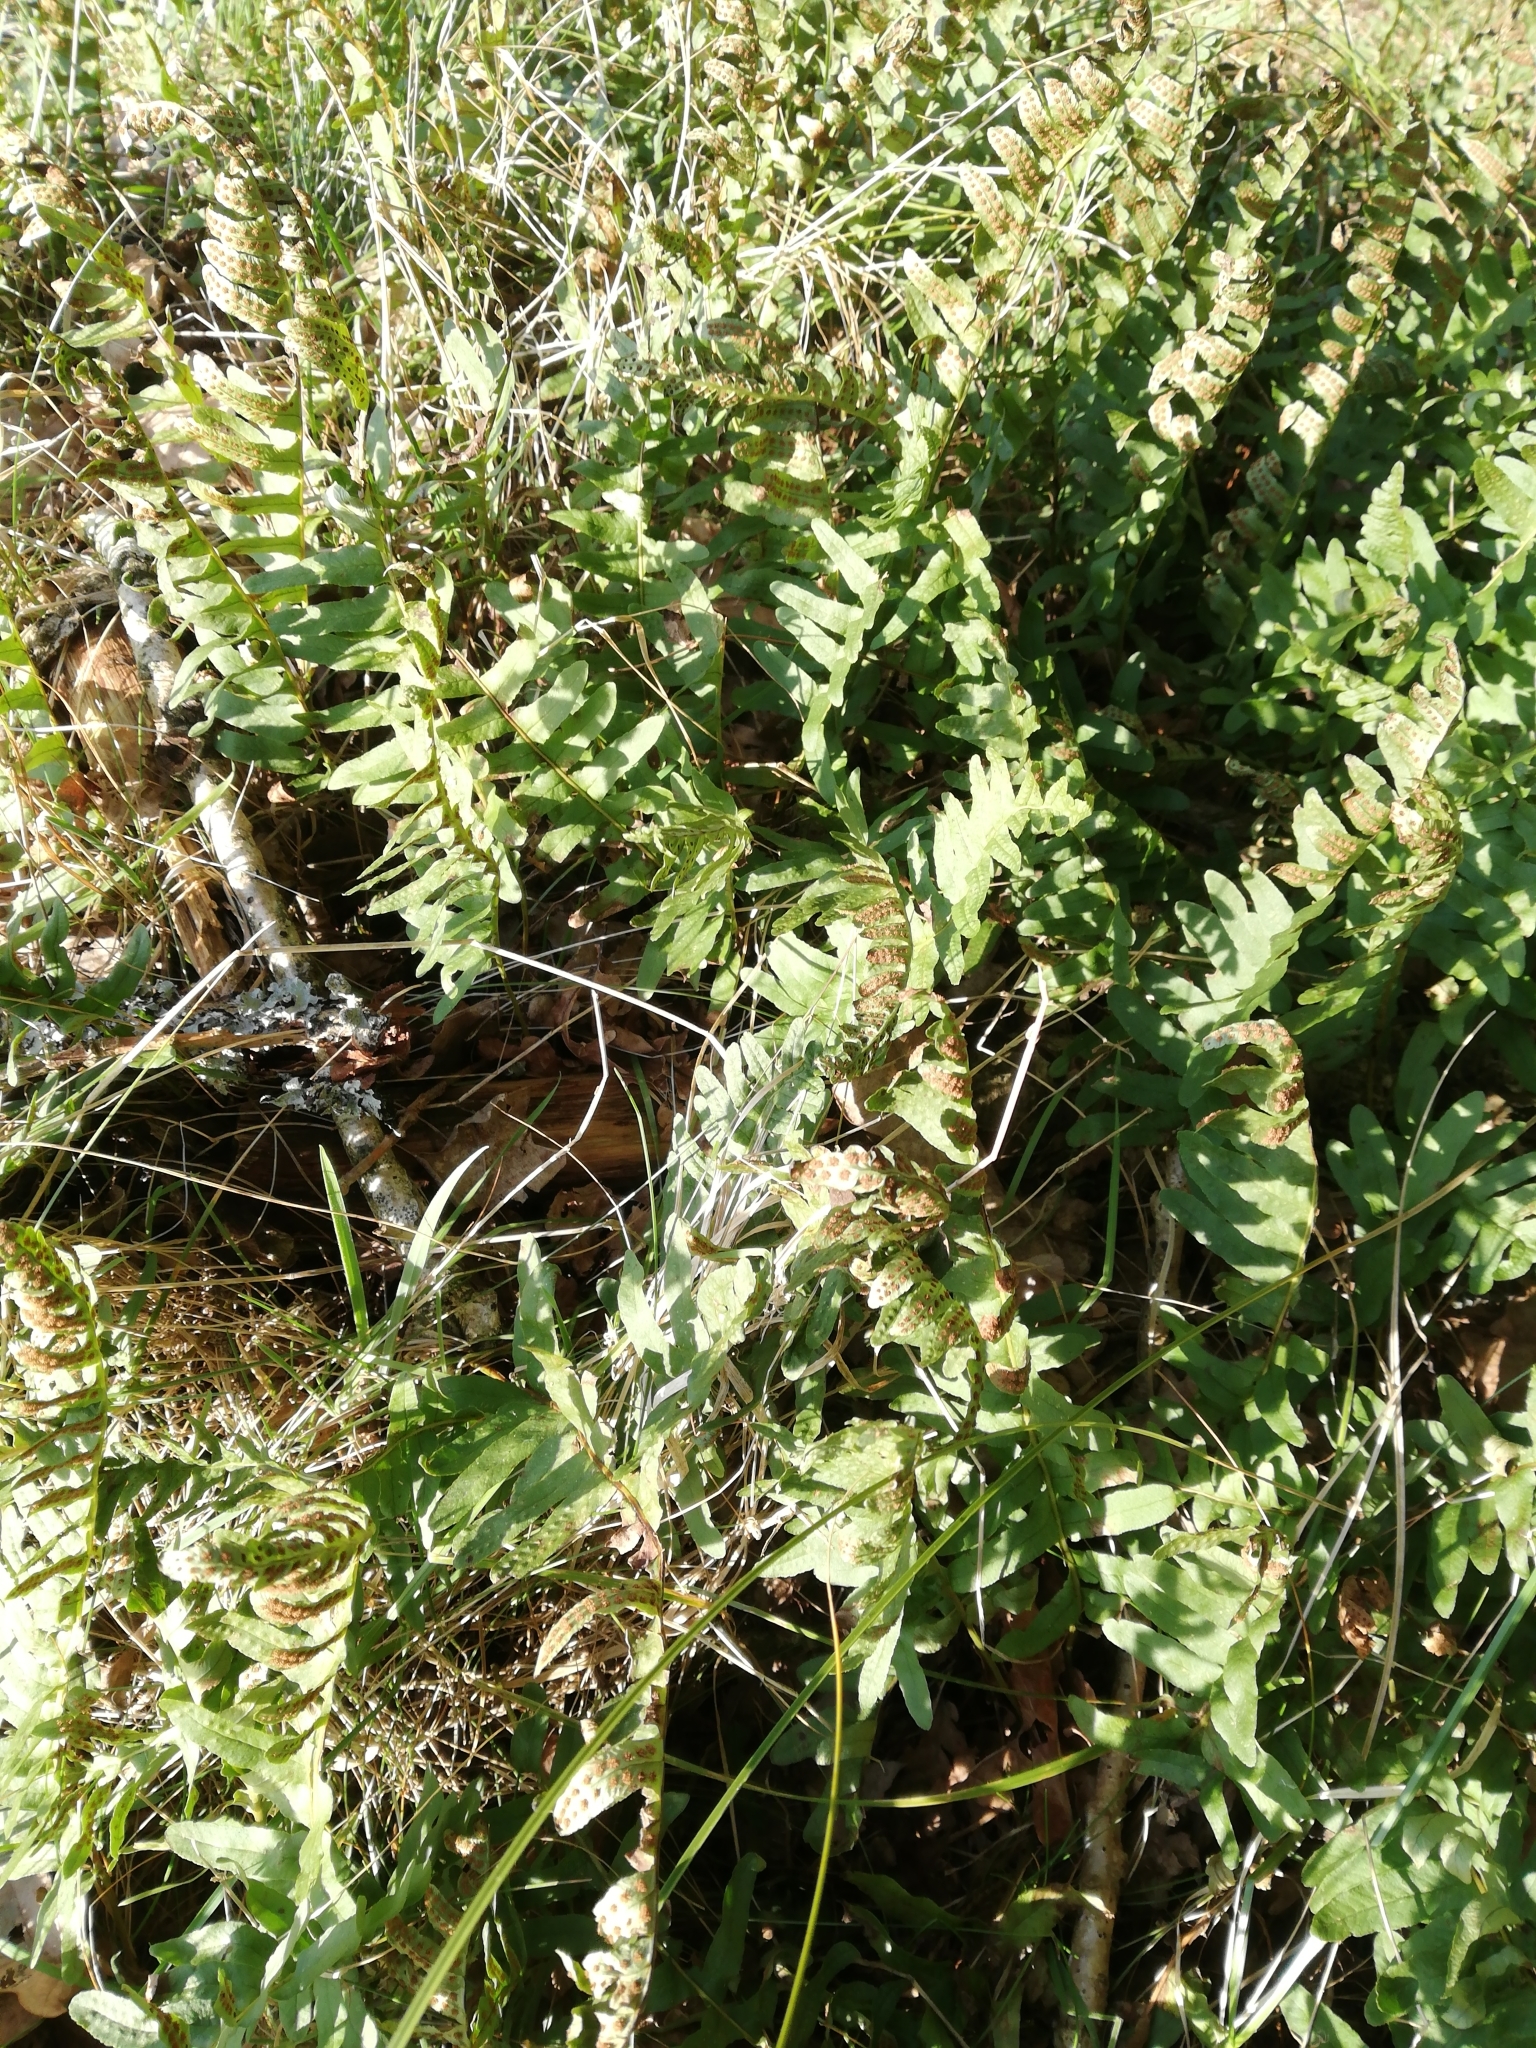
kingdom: Plantae
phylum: Tracheophyta
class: Polypodiopsida
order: Polypodiales
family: Polypodiaceae
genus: Polypodium
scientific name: Polypodium vulgare
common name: Common polypody
